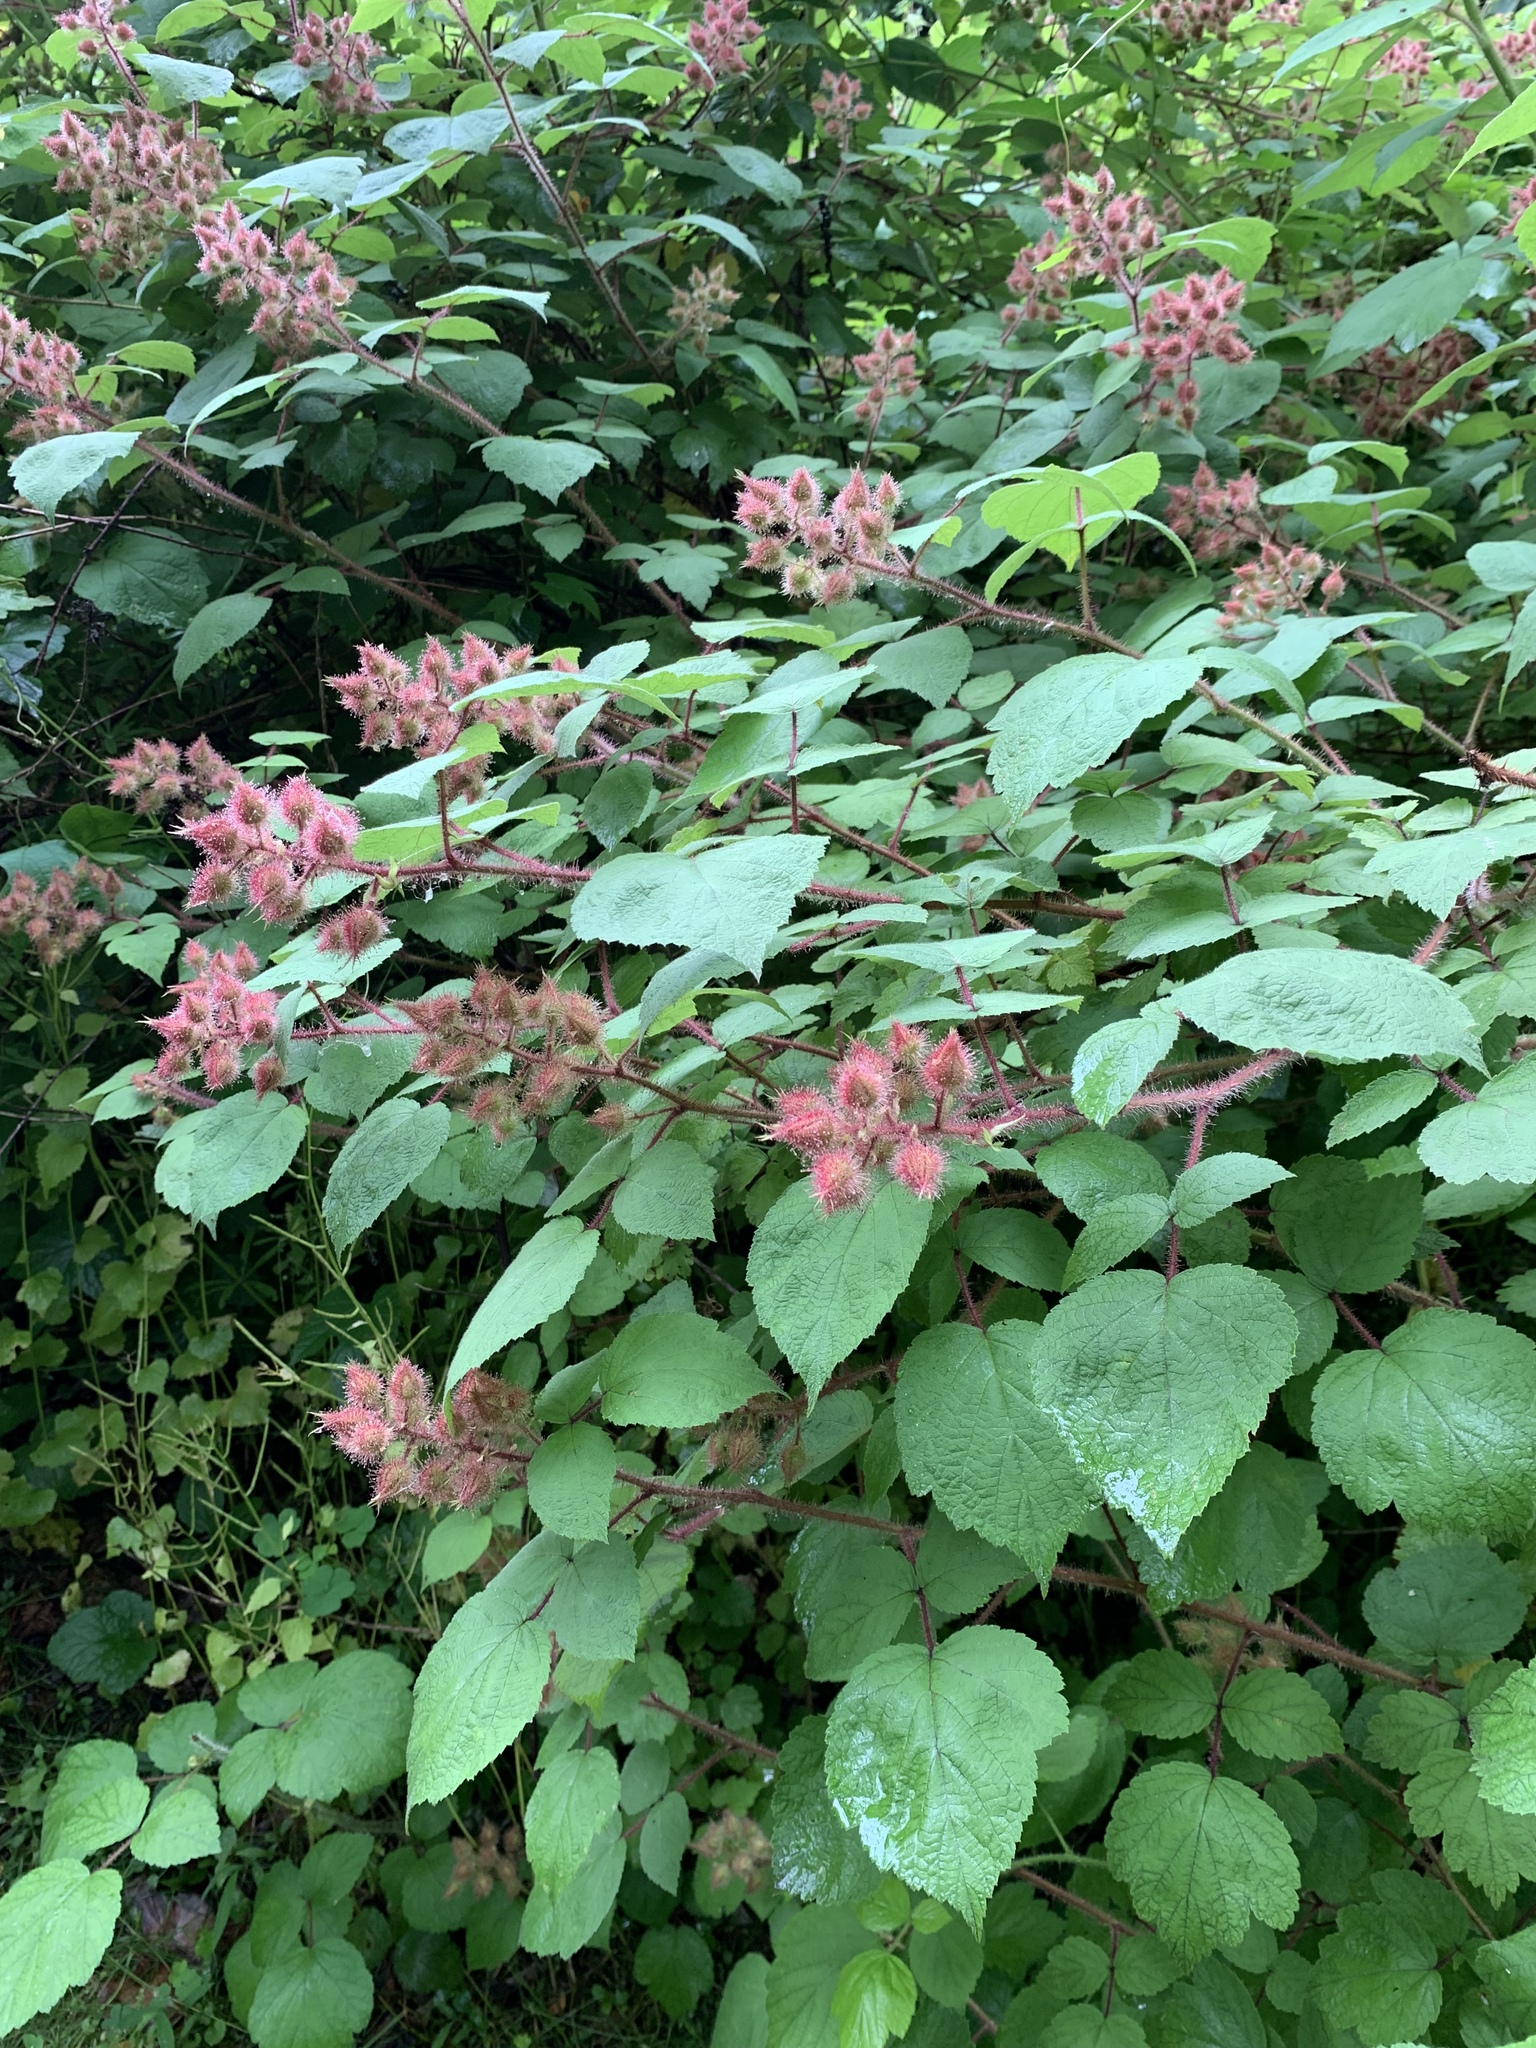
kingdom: Plantae
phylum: Tracheophyta
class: Magnoliopsida
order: Rosales
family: Rosaceae
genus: Rubus
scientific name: Rubus phoenicolasius
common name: Japanese wineberry
